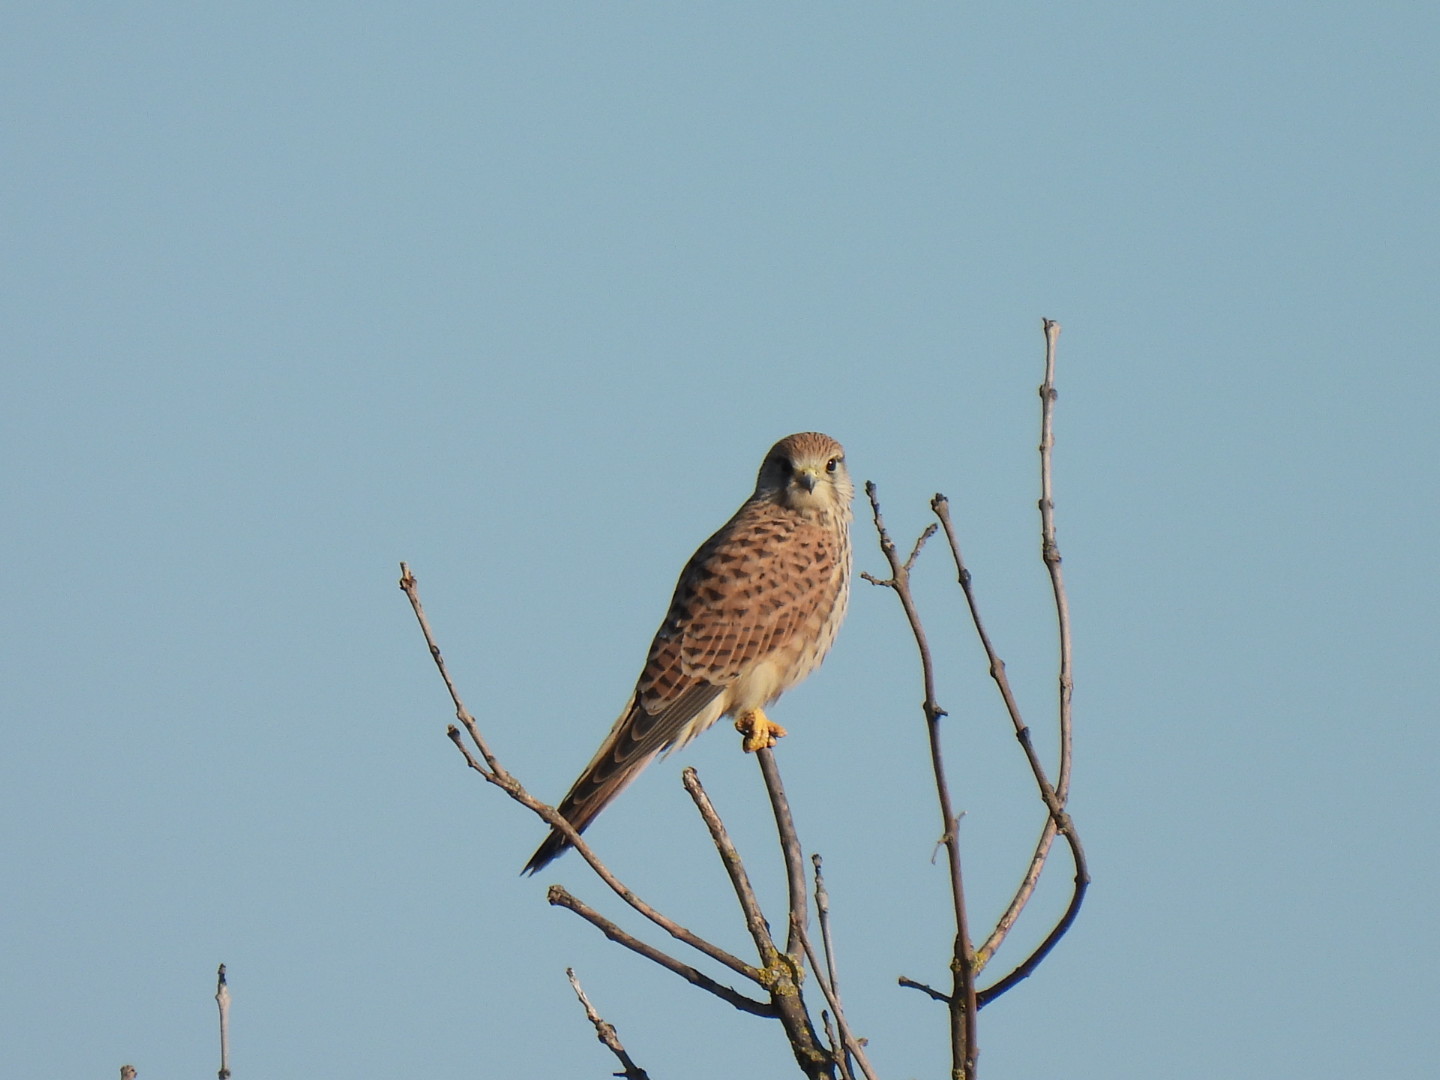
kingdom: Animalia
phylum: Chordata
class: Aves
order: Falconiformes
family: Falconidae
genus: Falco
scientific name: Falco tinnunculus
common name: Common kestrel
